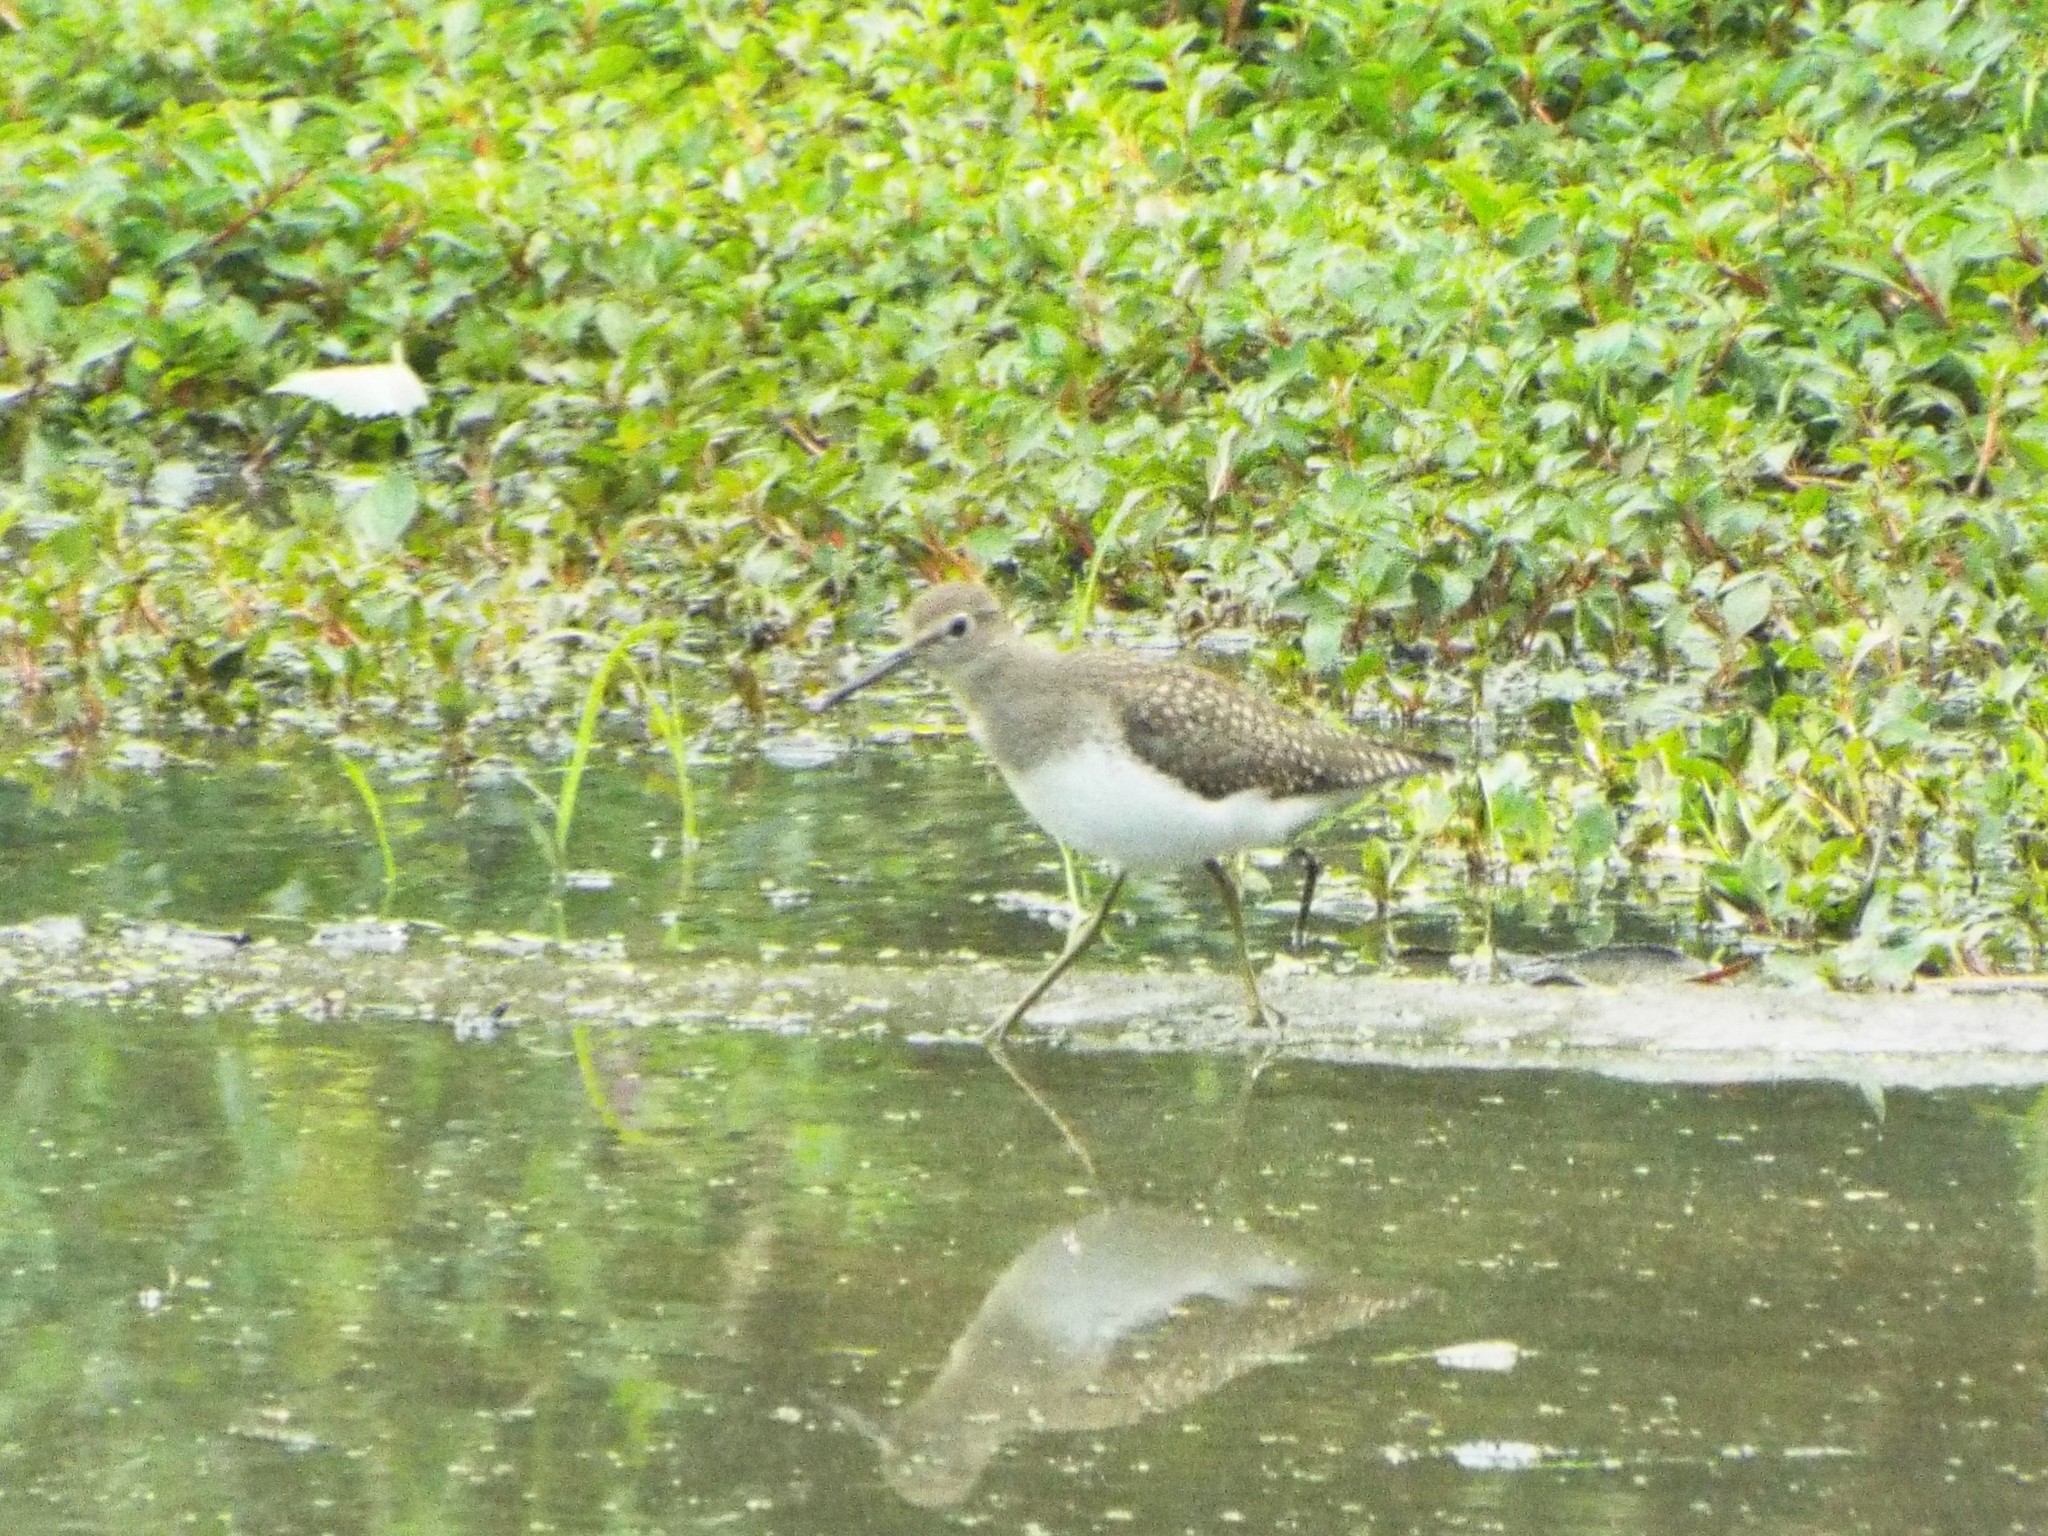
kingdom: Animalia
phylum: Chordata
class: Aves
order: Charadriiformes
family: Scolopacidae
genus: Tringa
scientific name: Tringa solitaria
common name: Solitary sandpiper
